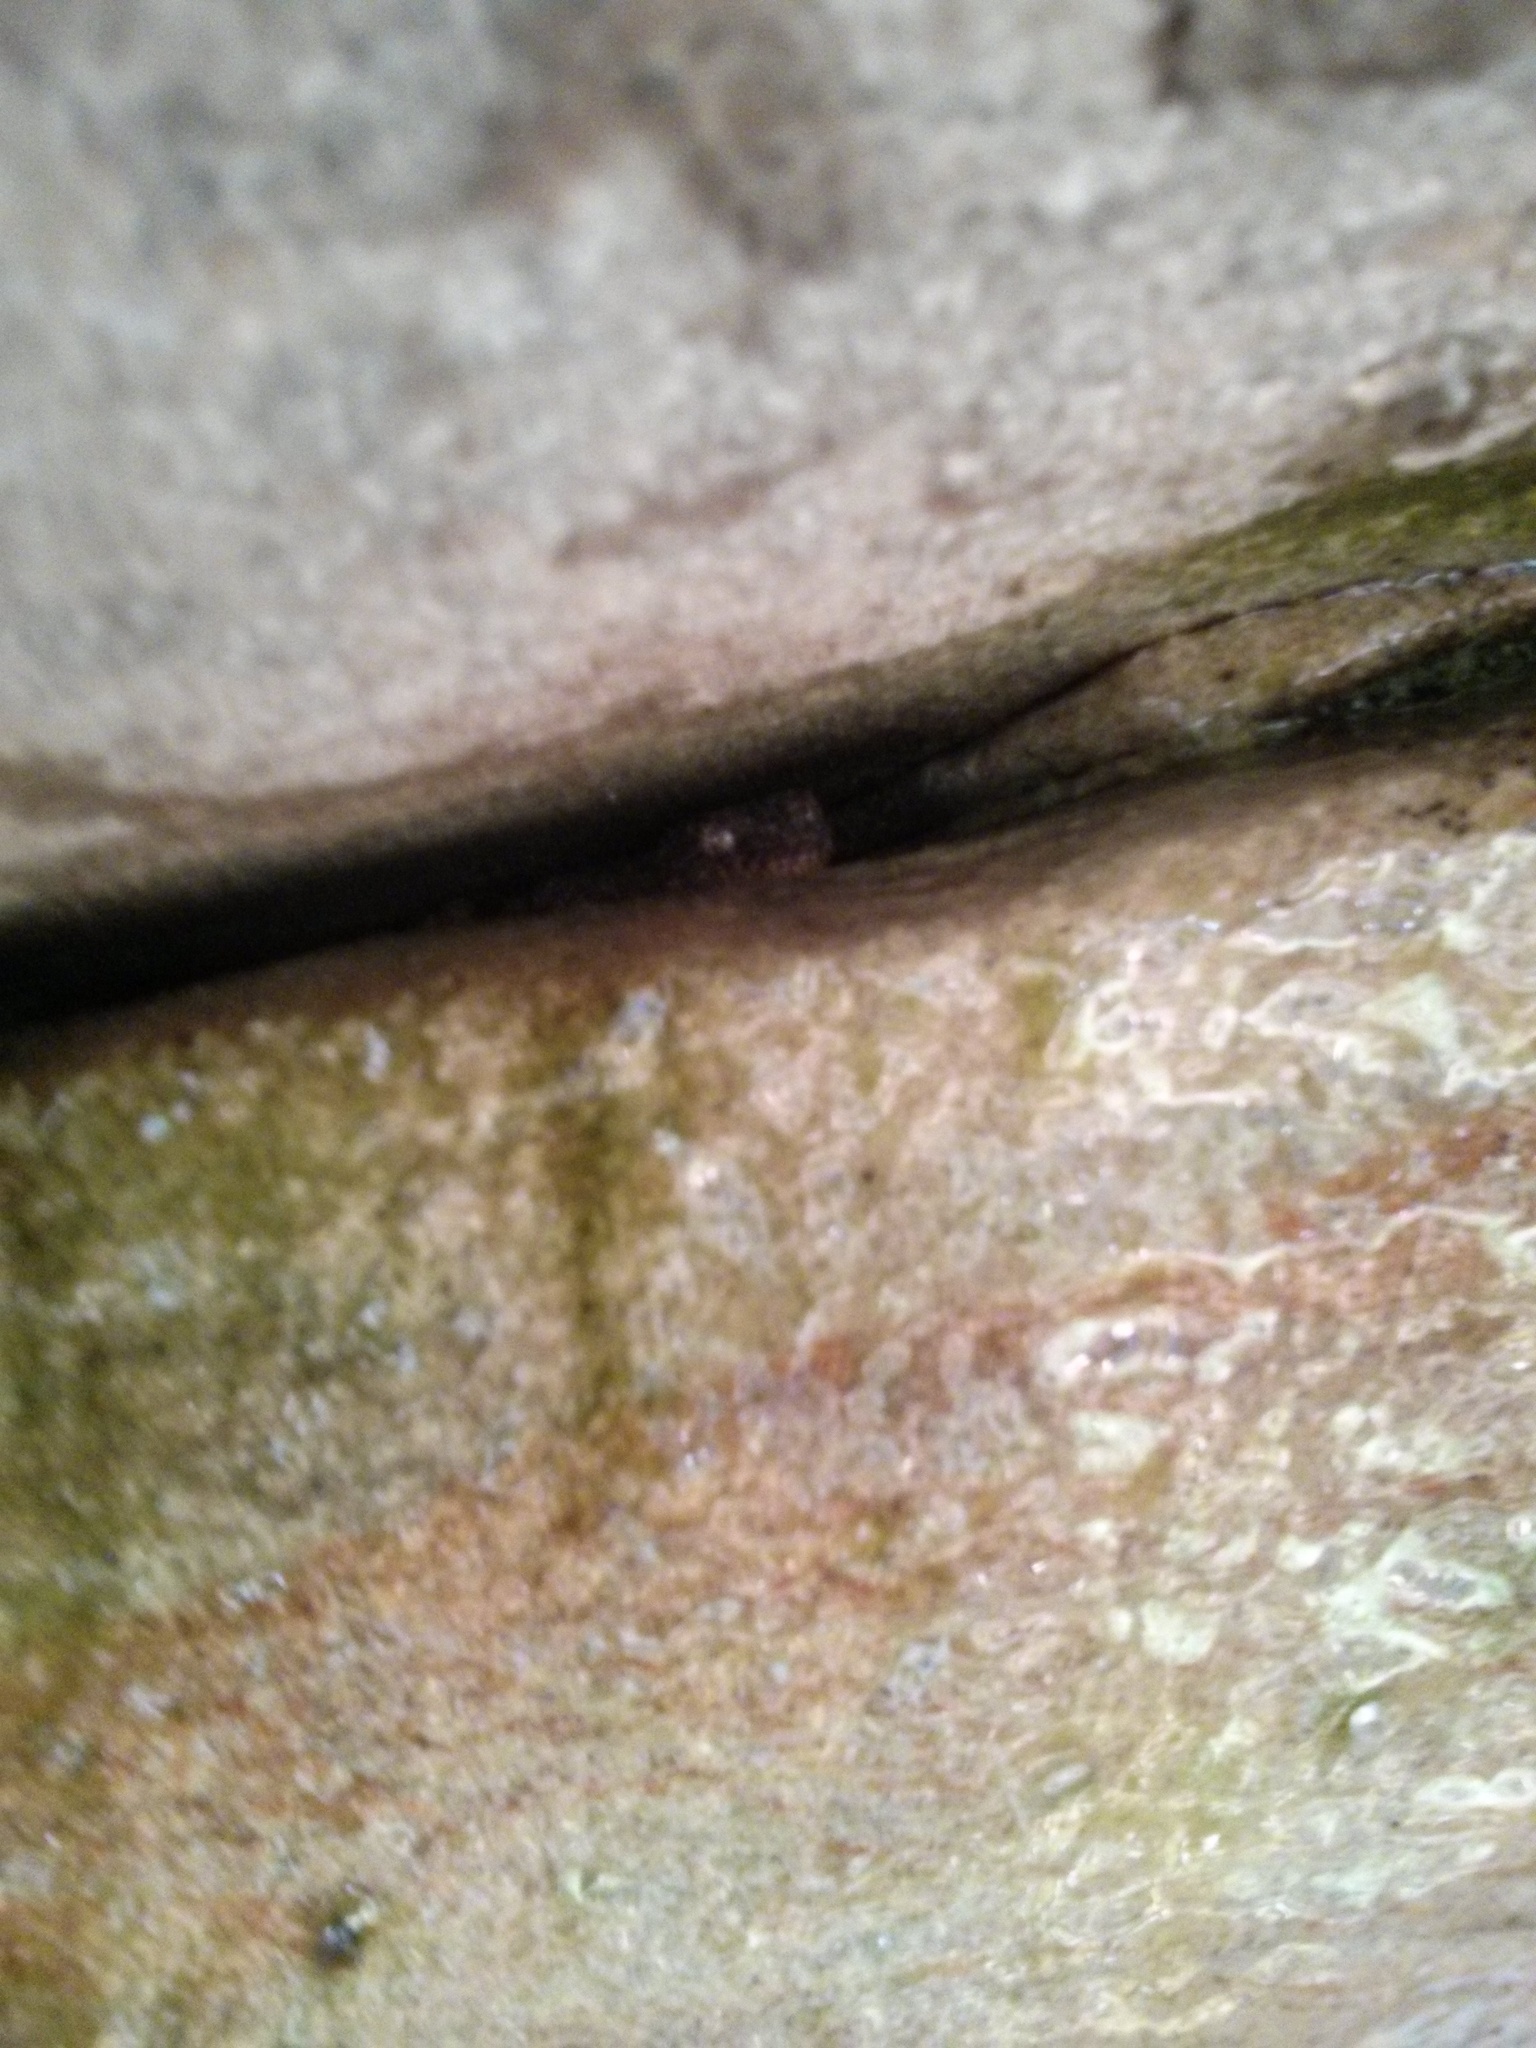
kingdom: Animalia
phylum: Chordata
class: Squamata
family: Carphodactylidae
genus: Phyllurus
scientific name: Phyllurus platurus
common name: Broad-tailed gecko
